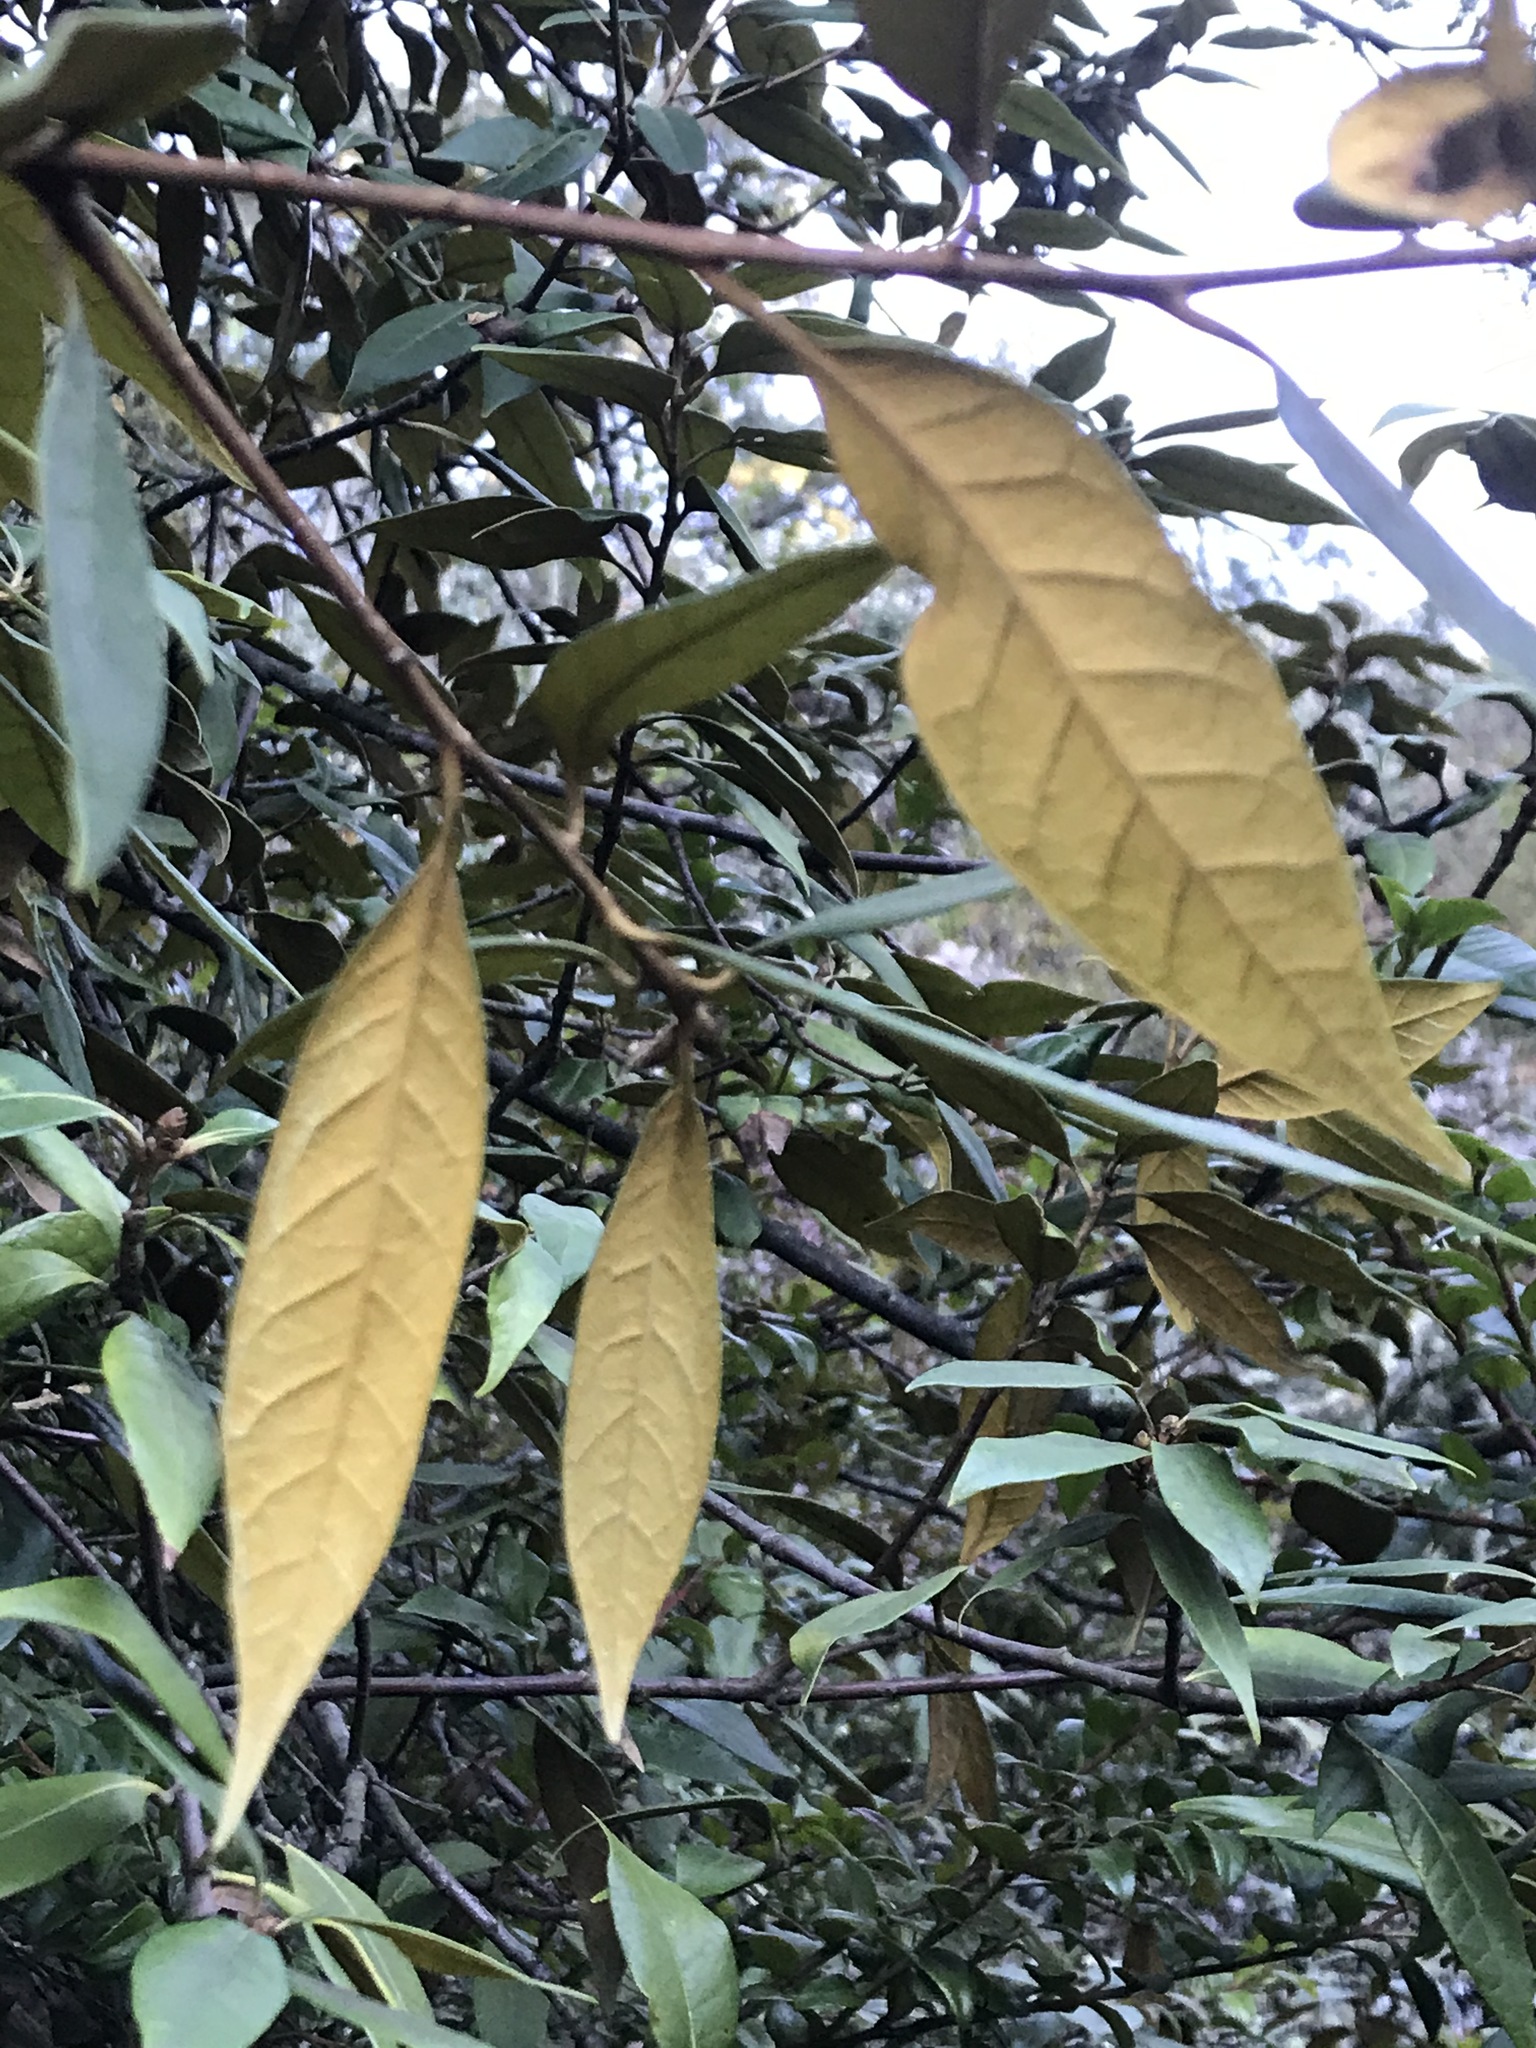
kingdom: Plantae
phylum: Tracheophyta
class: Magnoliopsida
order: Fagales
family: Fagaceae
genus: Chrysolepis
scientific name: Chrysolepis chrysophylla
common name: Giant chinquapin
